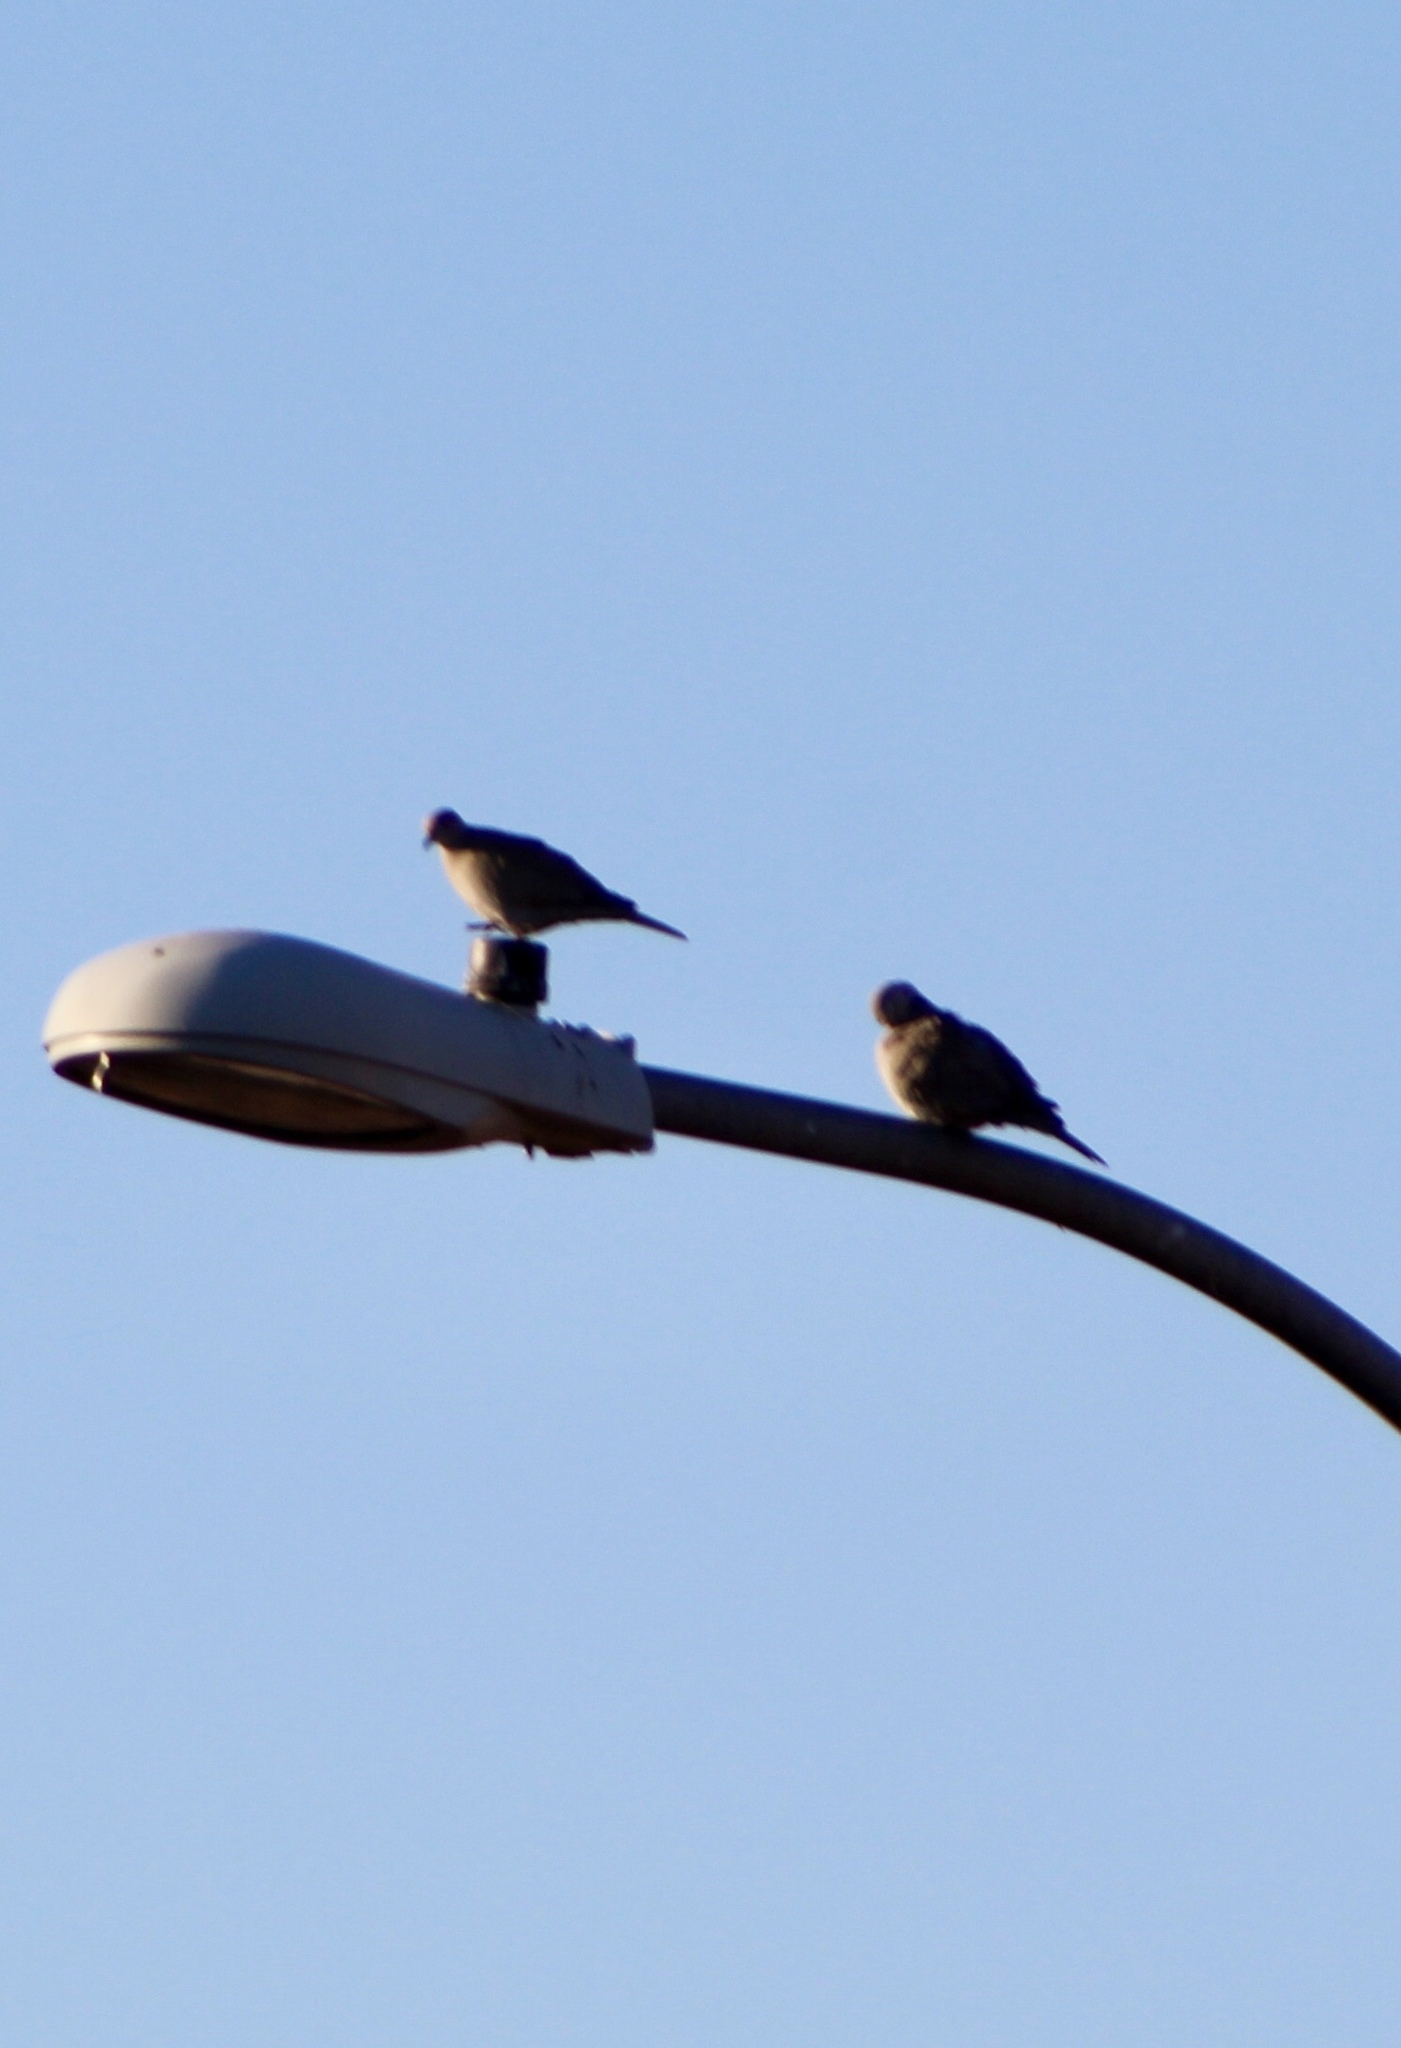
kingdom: Animalia
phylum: Chordata
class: Aves
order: Columbiformes
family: Columbidae
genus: Zenaida
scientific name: Zenaida macroura
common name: Mourning dove
